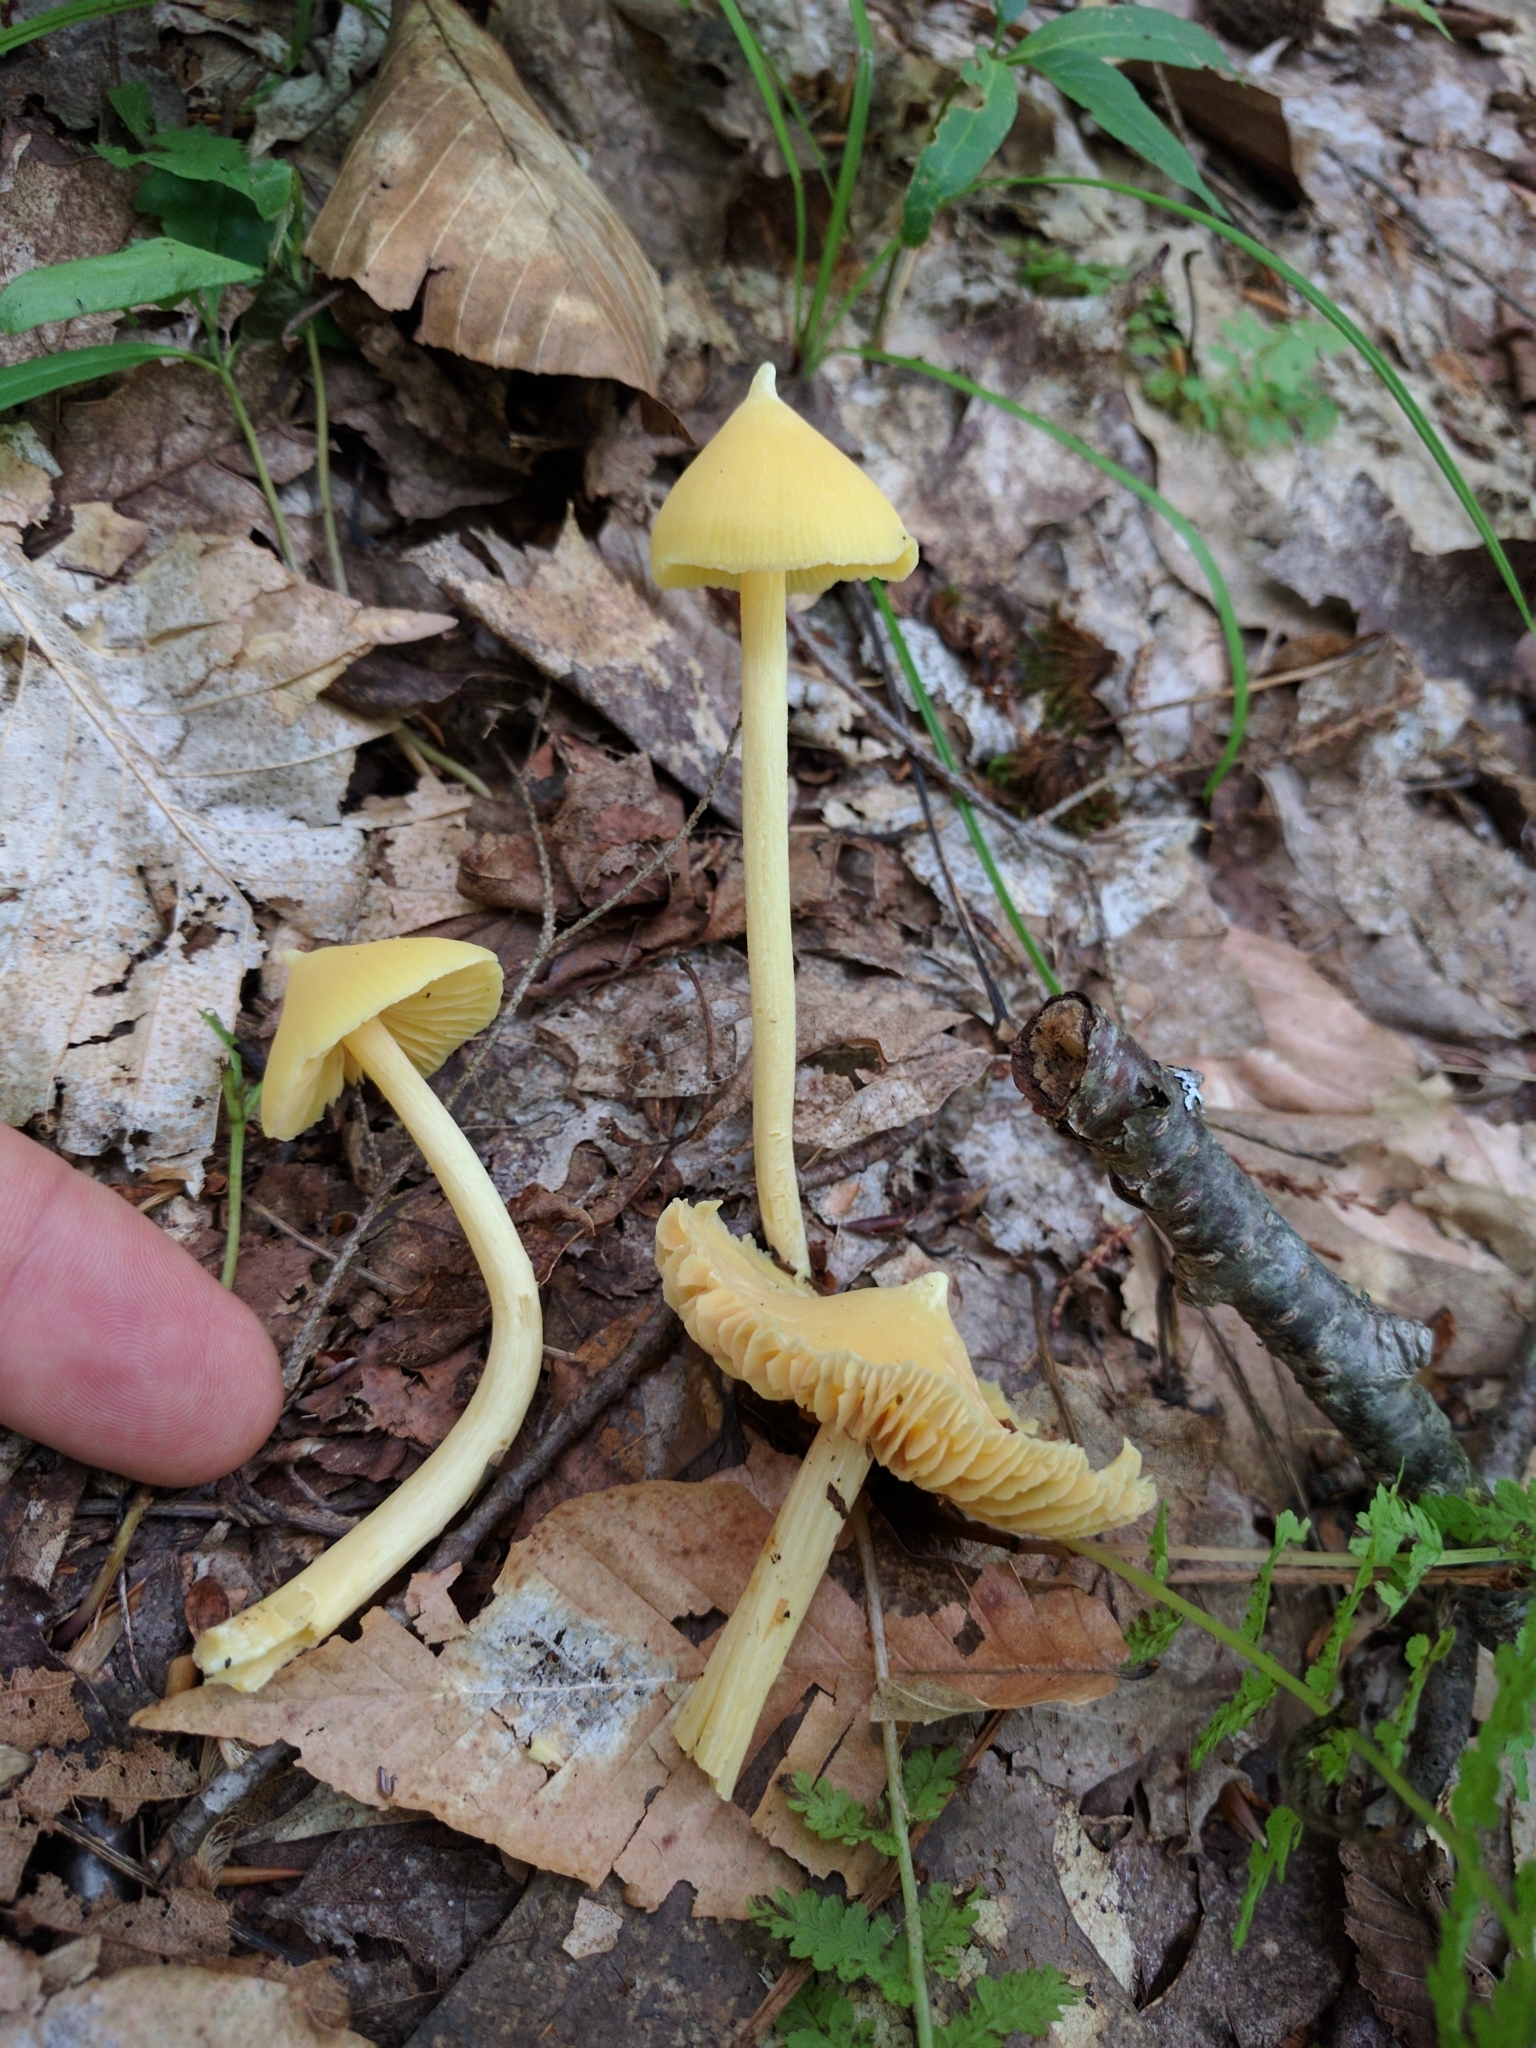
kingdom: Fungi
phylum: Basidiomycota
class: Agaricomycetes
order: Agaricales
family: Entolomataceae
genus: Entoloma
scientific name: Entoloma murrayi
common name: Yellow unicorn entoloma
